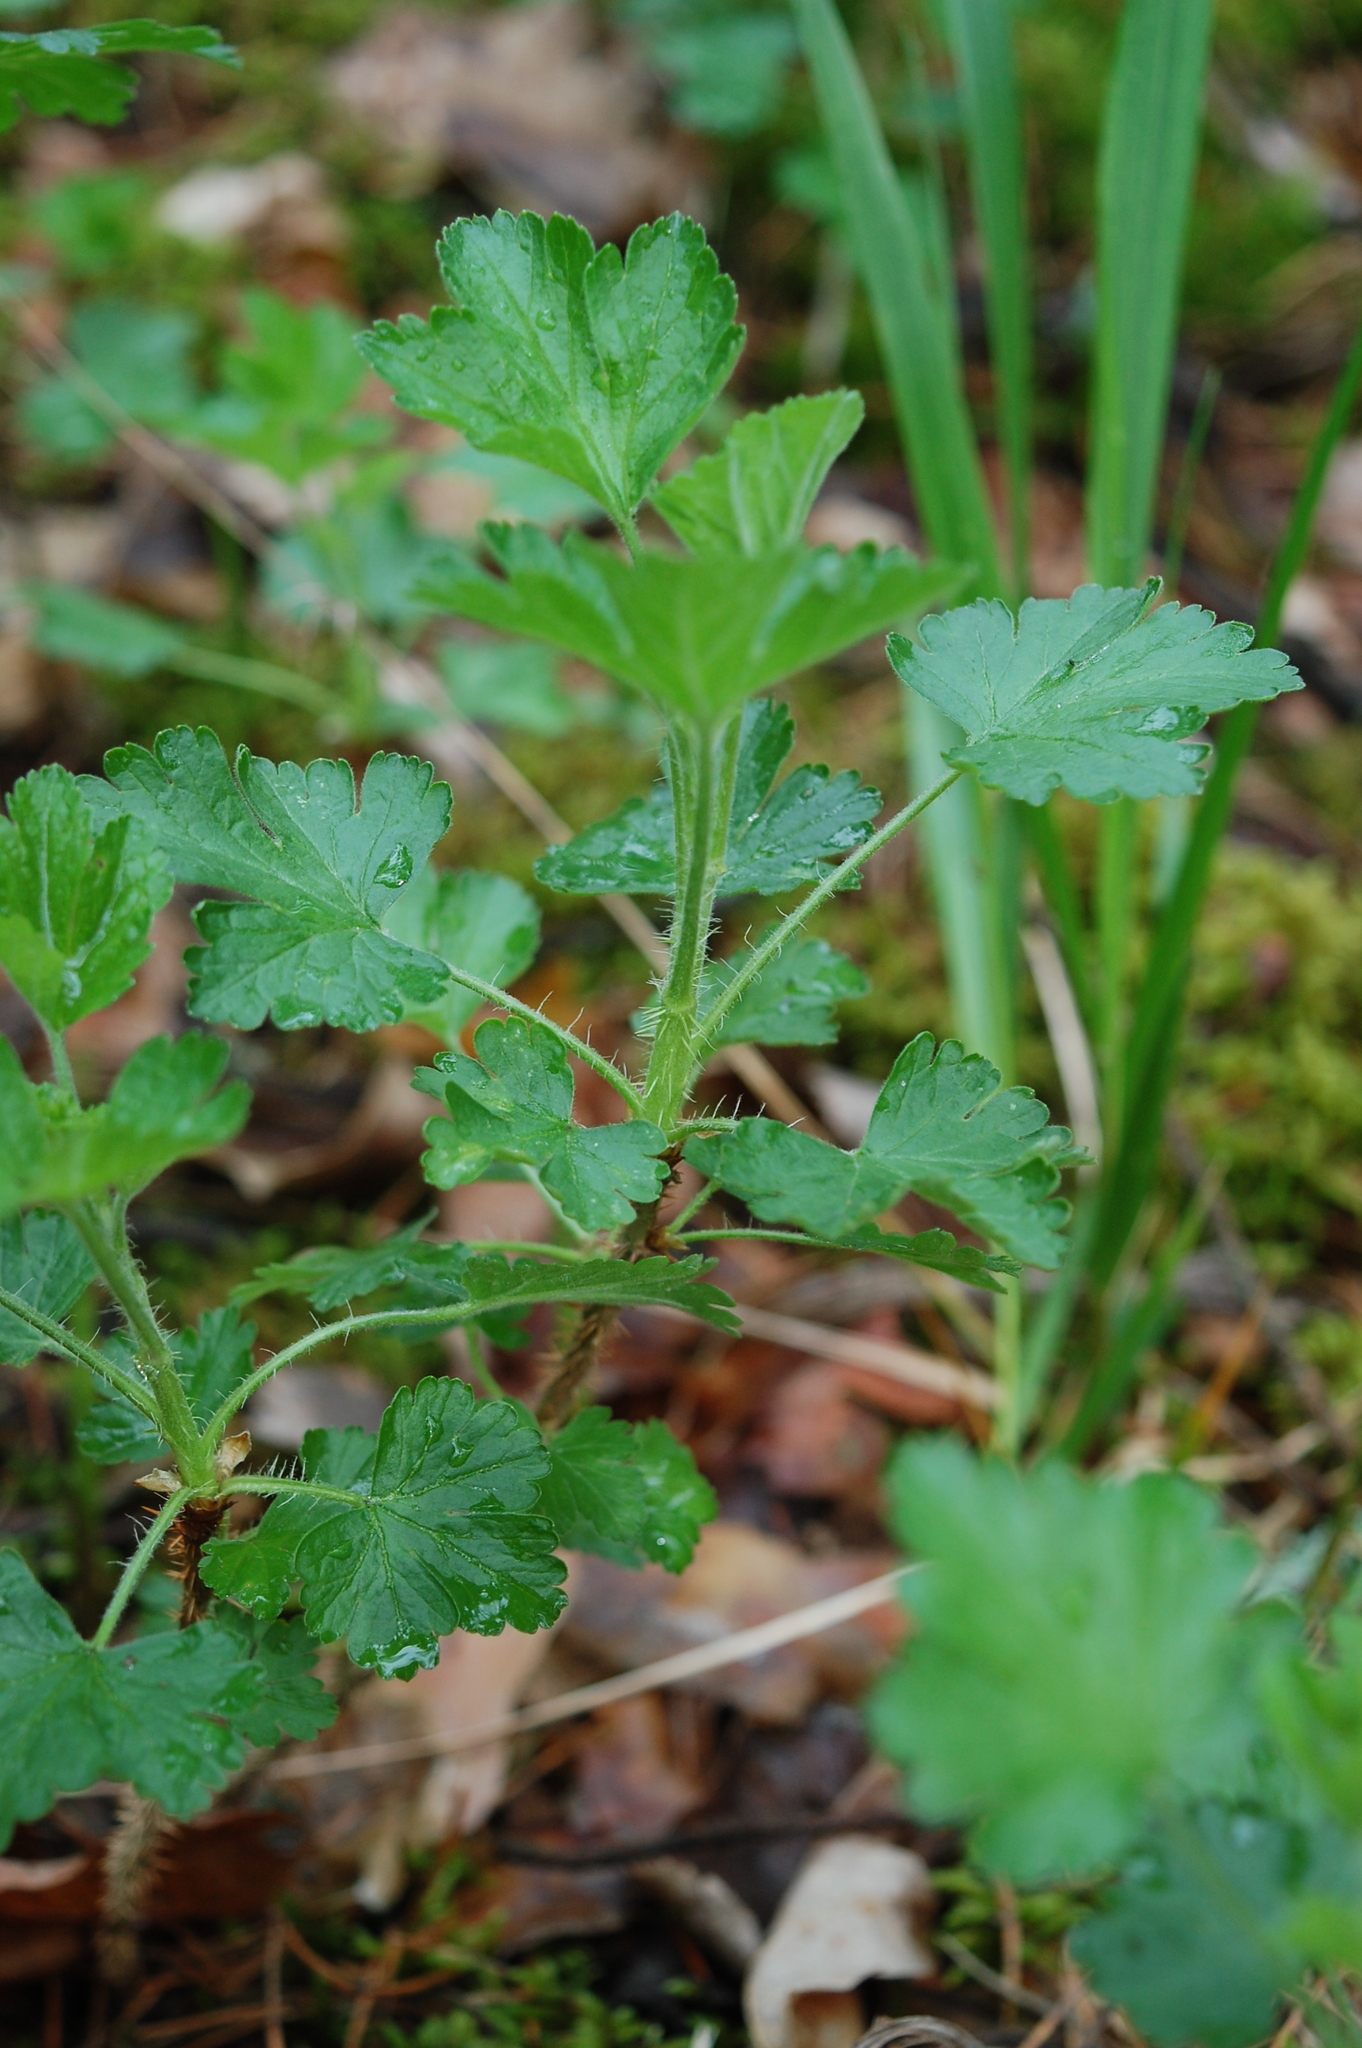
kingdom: Plantae
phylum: Tracheophyta
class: Magnoliopsida
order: Saxifragales
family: Grossulariaceae
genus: Ribes
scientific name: Ribes uva-crispa
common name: Gooseberry
